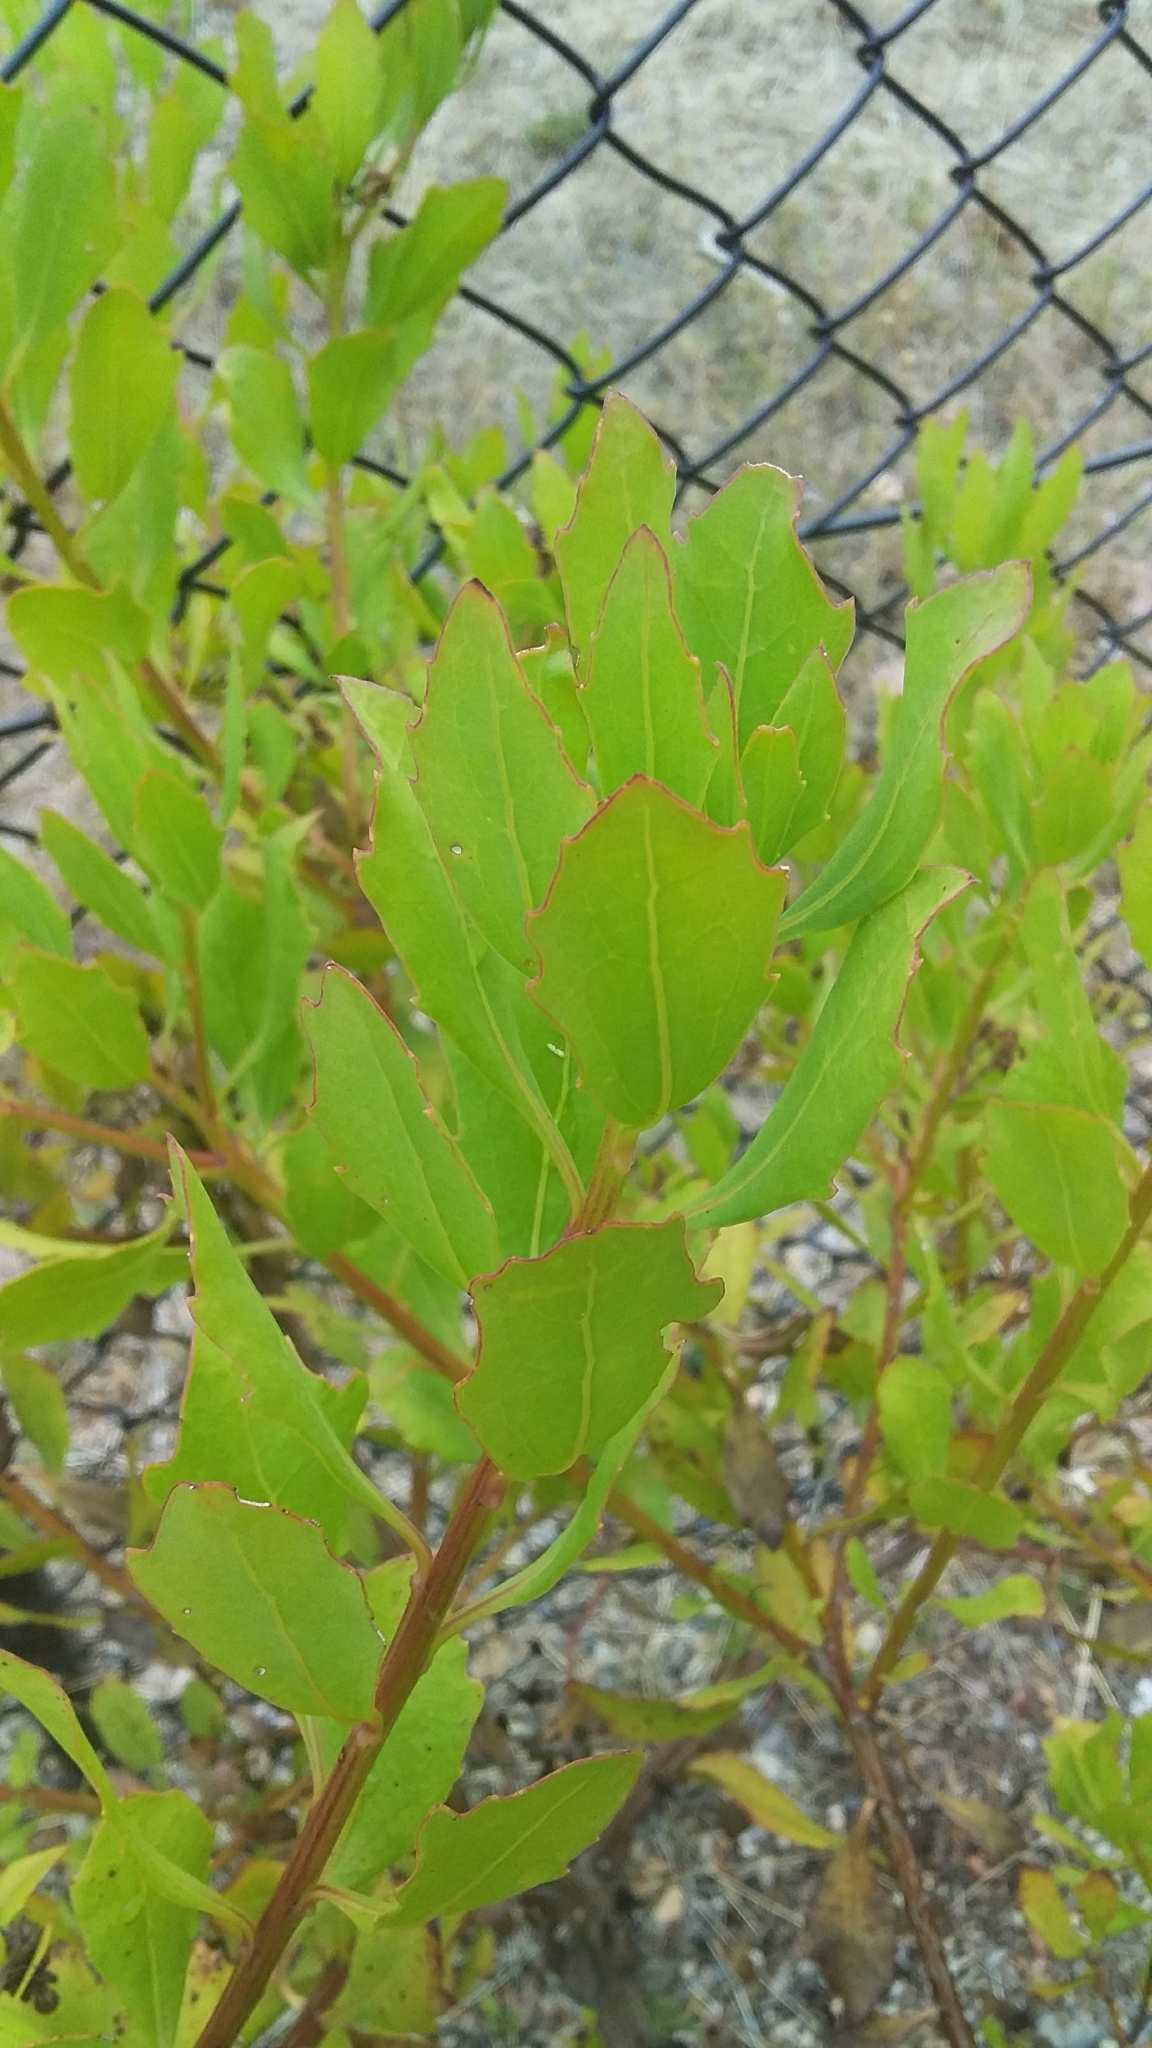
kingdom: Plantae
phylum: Tracheophyta
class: Magnoliopsida
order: Asterales
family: Asteraceae
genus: Osteospermum
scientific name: Osteospermum moniliferum
